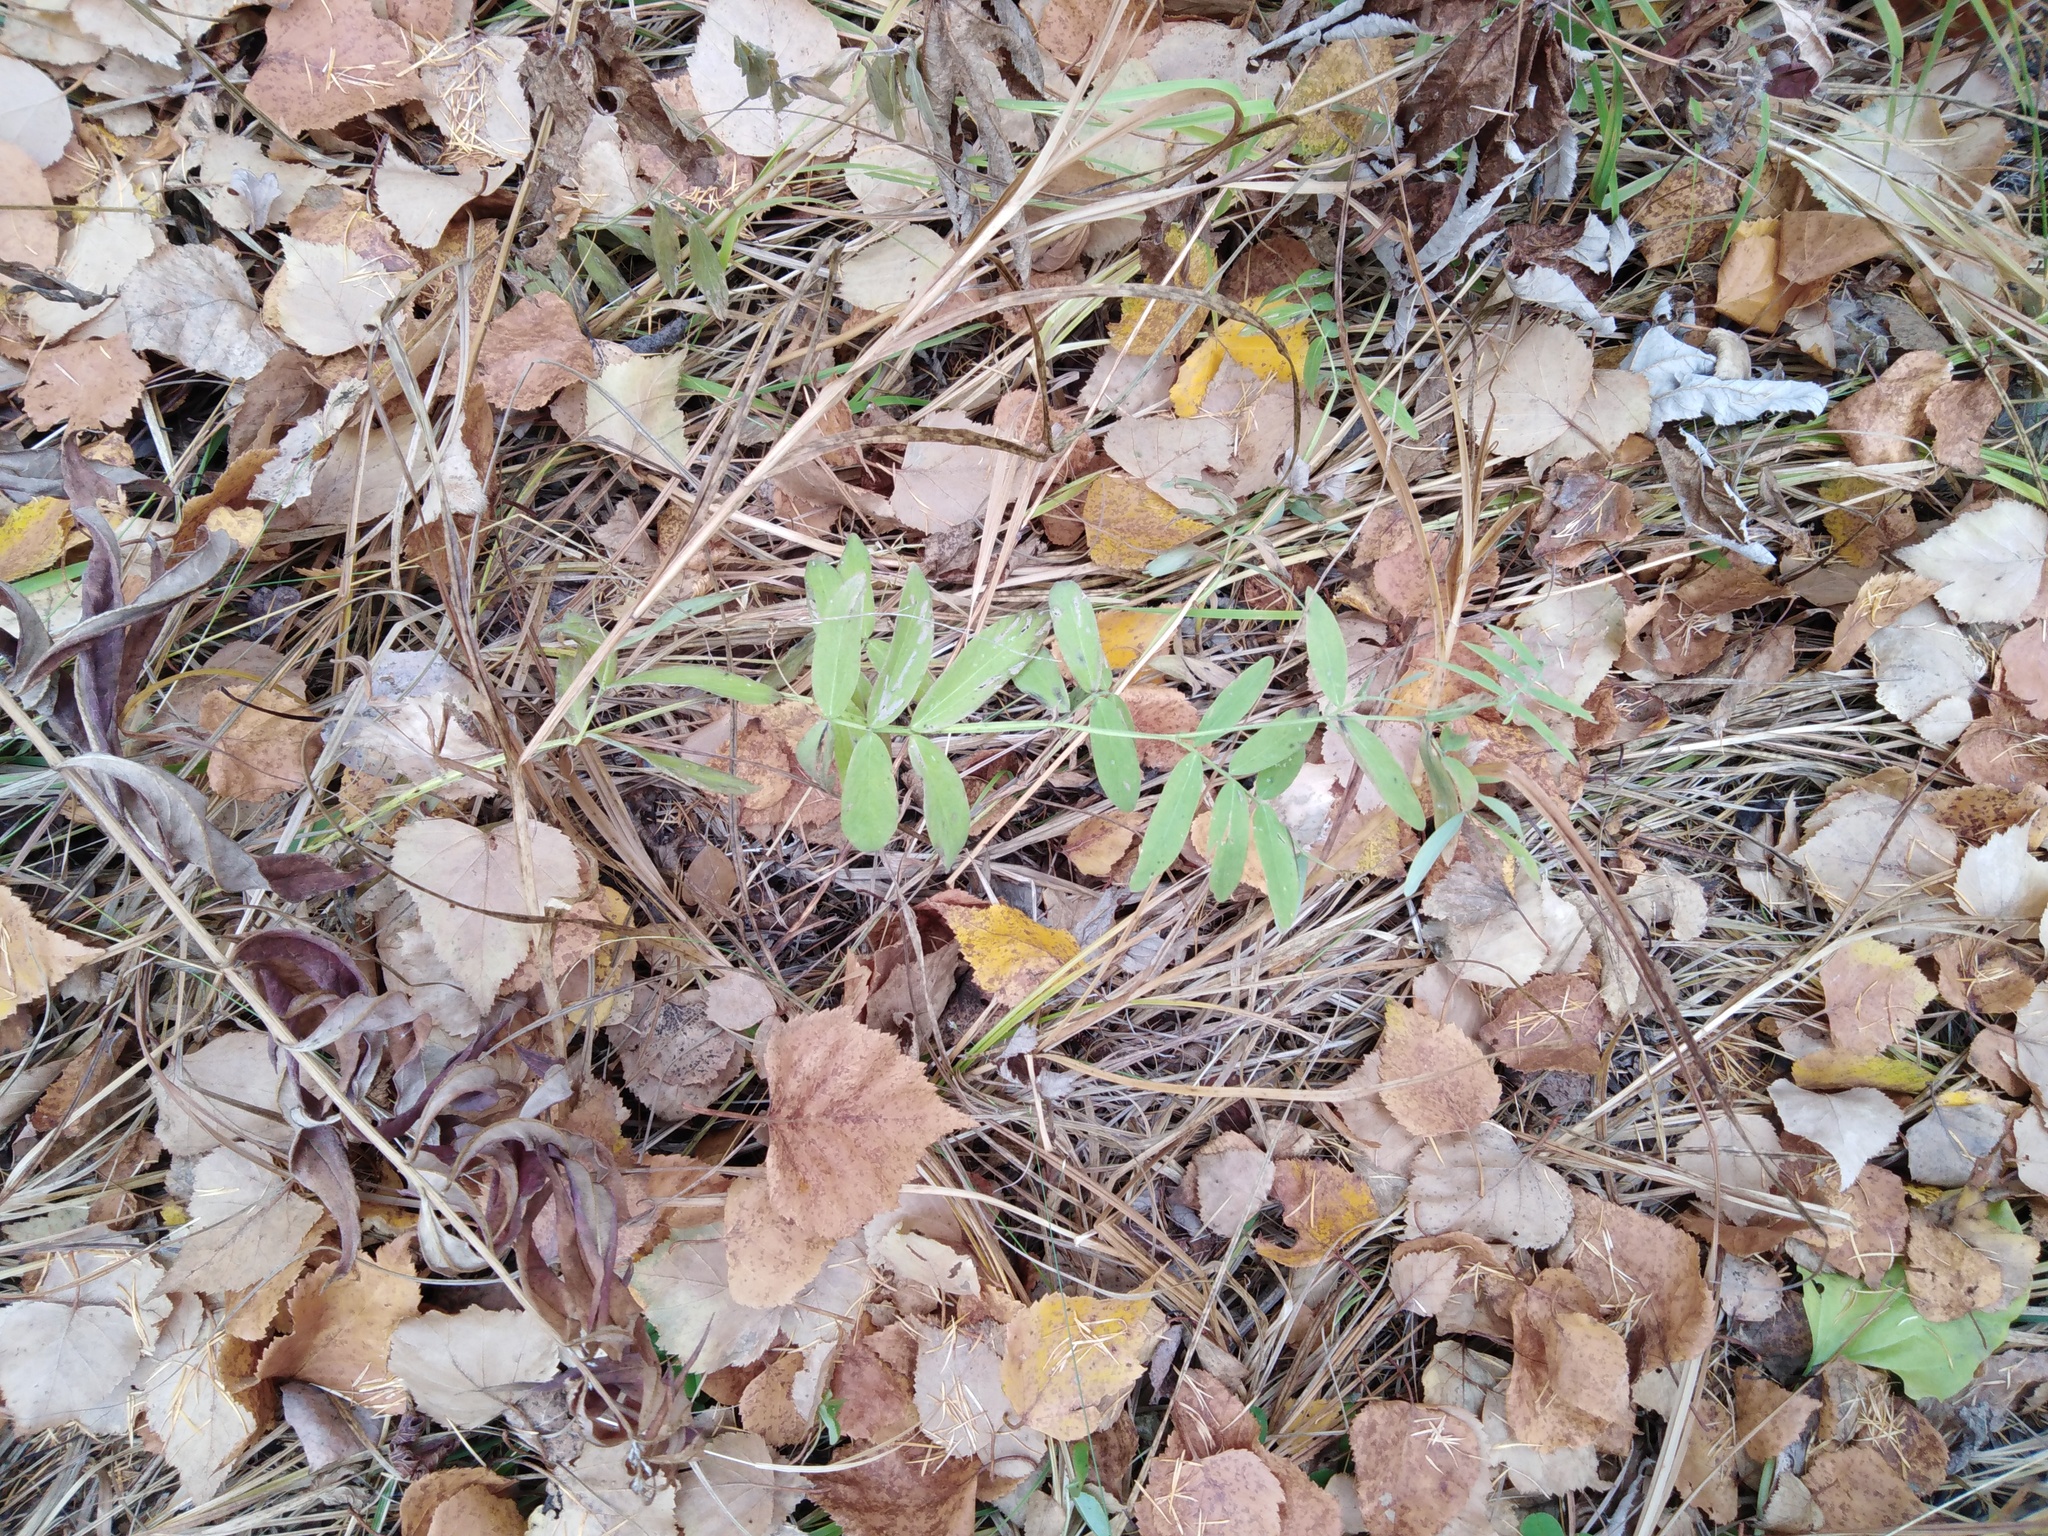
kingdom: Plantae
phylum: Tracheophyta
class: Magnoliopsida
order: Fabales
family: Fabaceae
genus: Lathyrus
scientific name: Lathyrus palustris
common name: Marsh pea
